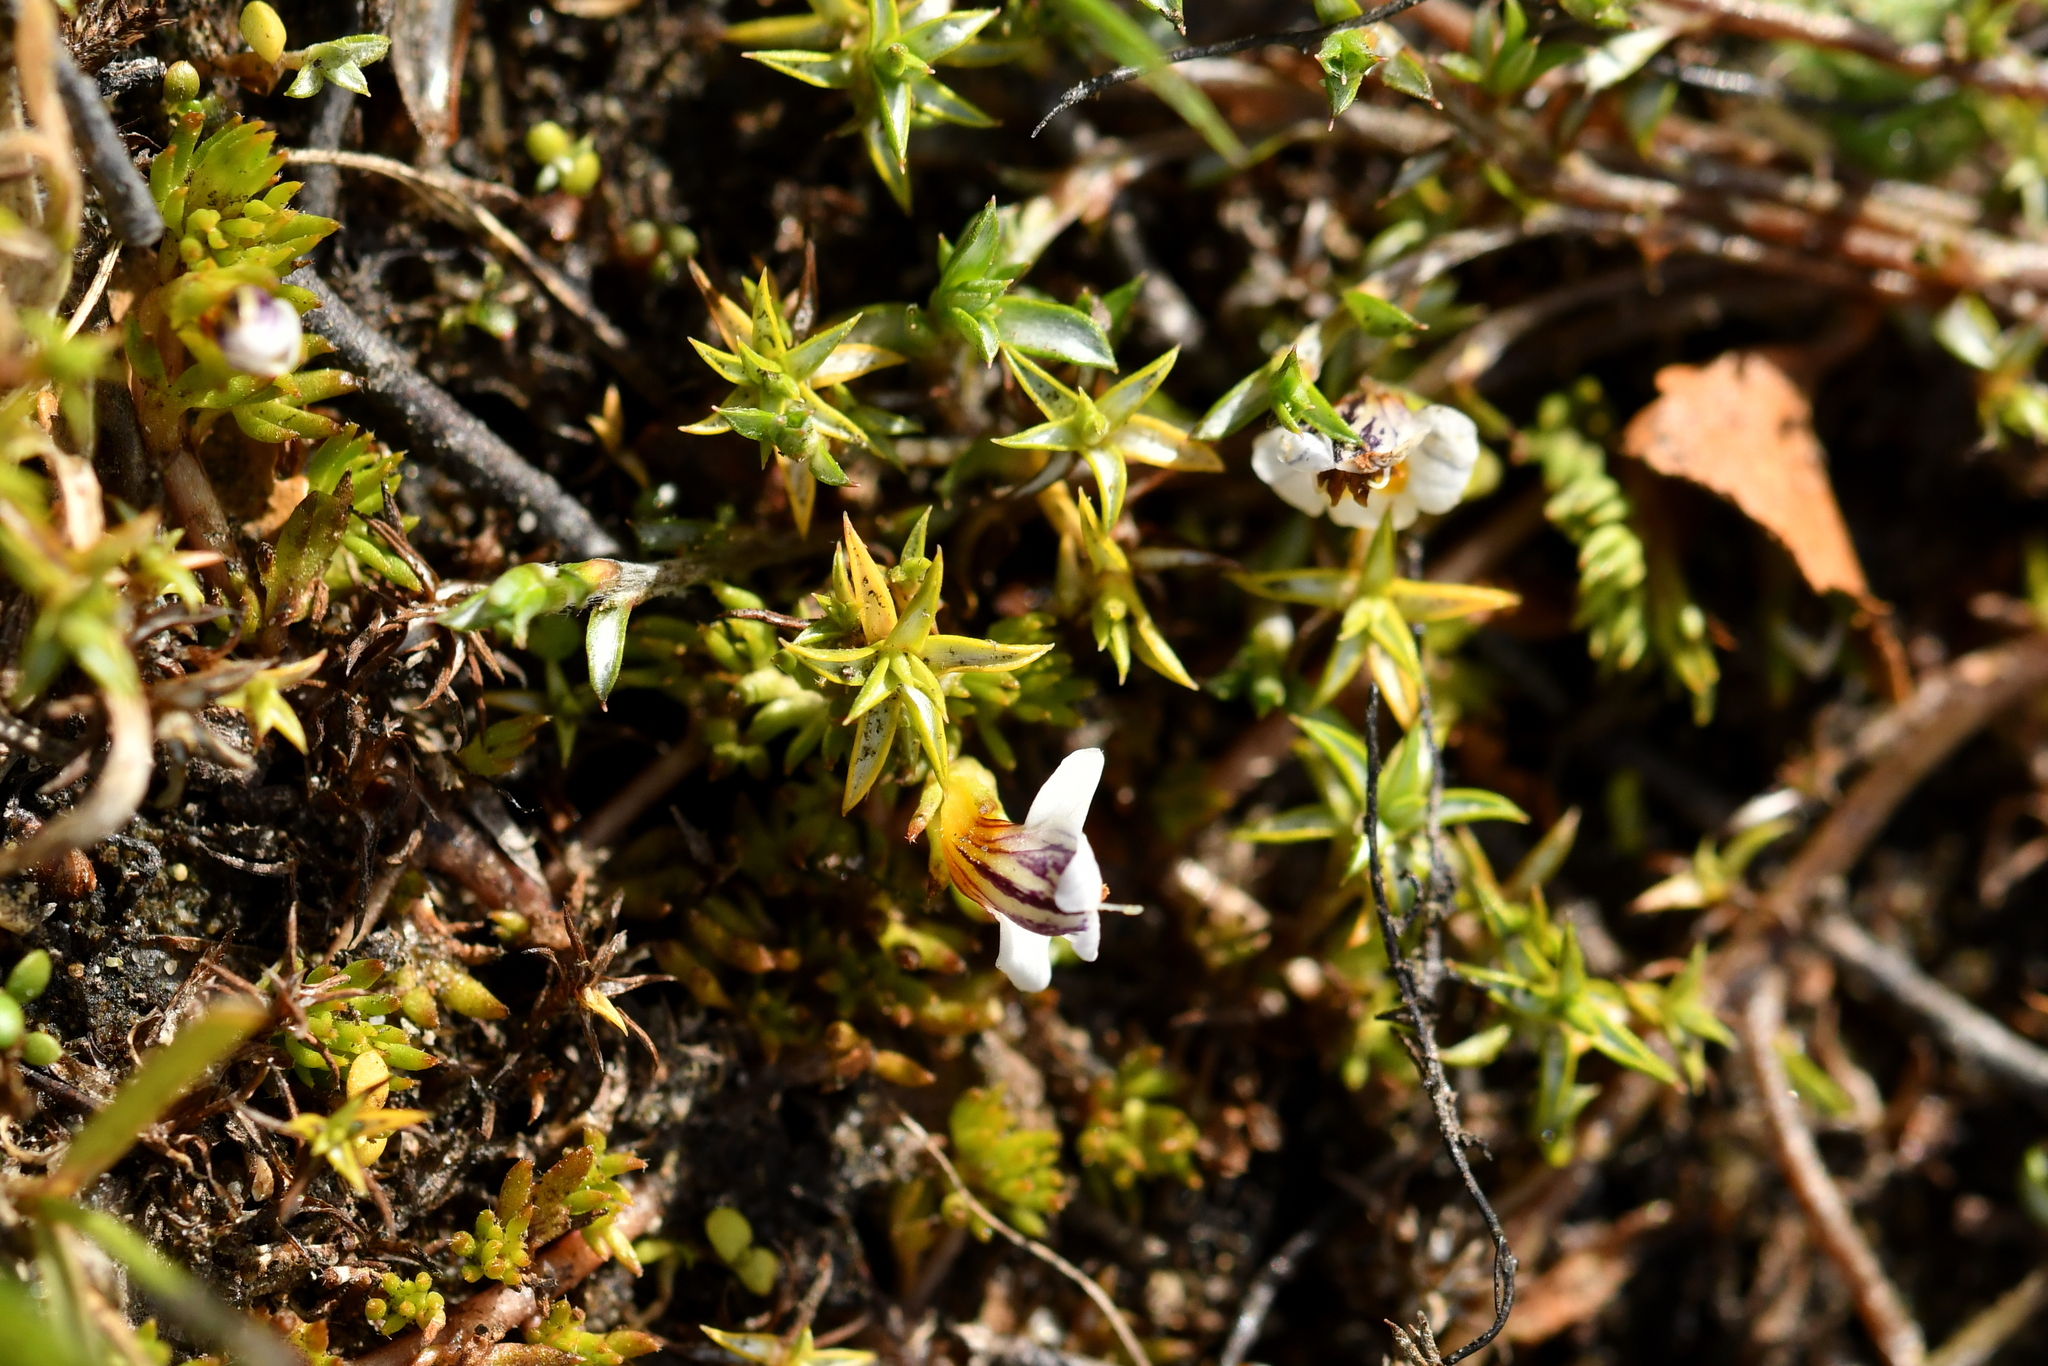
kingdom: Plantae
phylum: Tracheophyta
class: Magnoliopsida
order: Lamiales
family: Orobanchaceae
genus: Euphrasia
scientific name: Euphrasia dyeri
